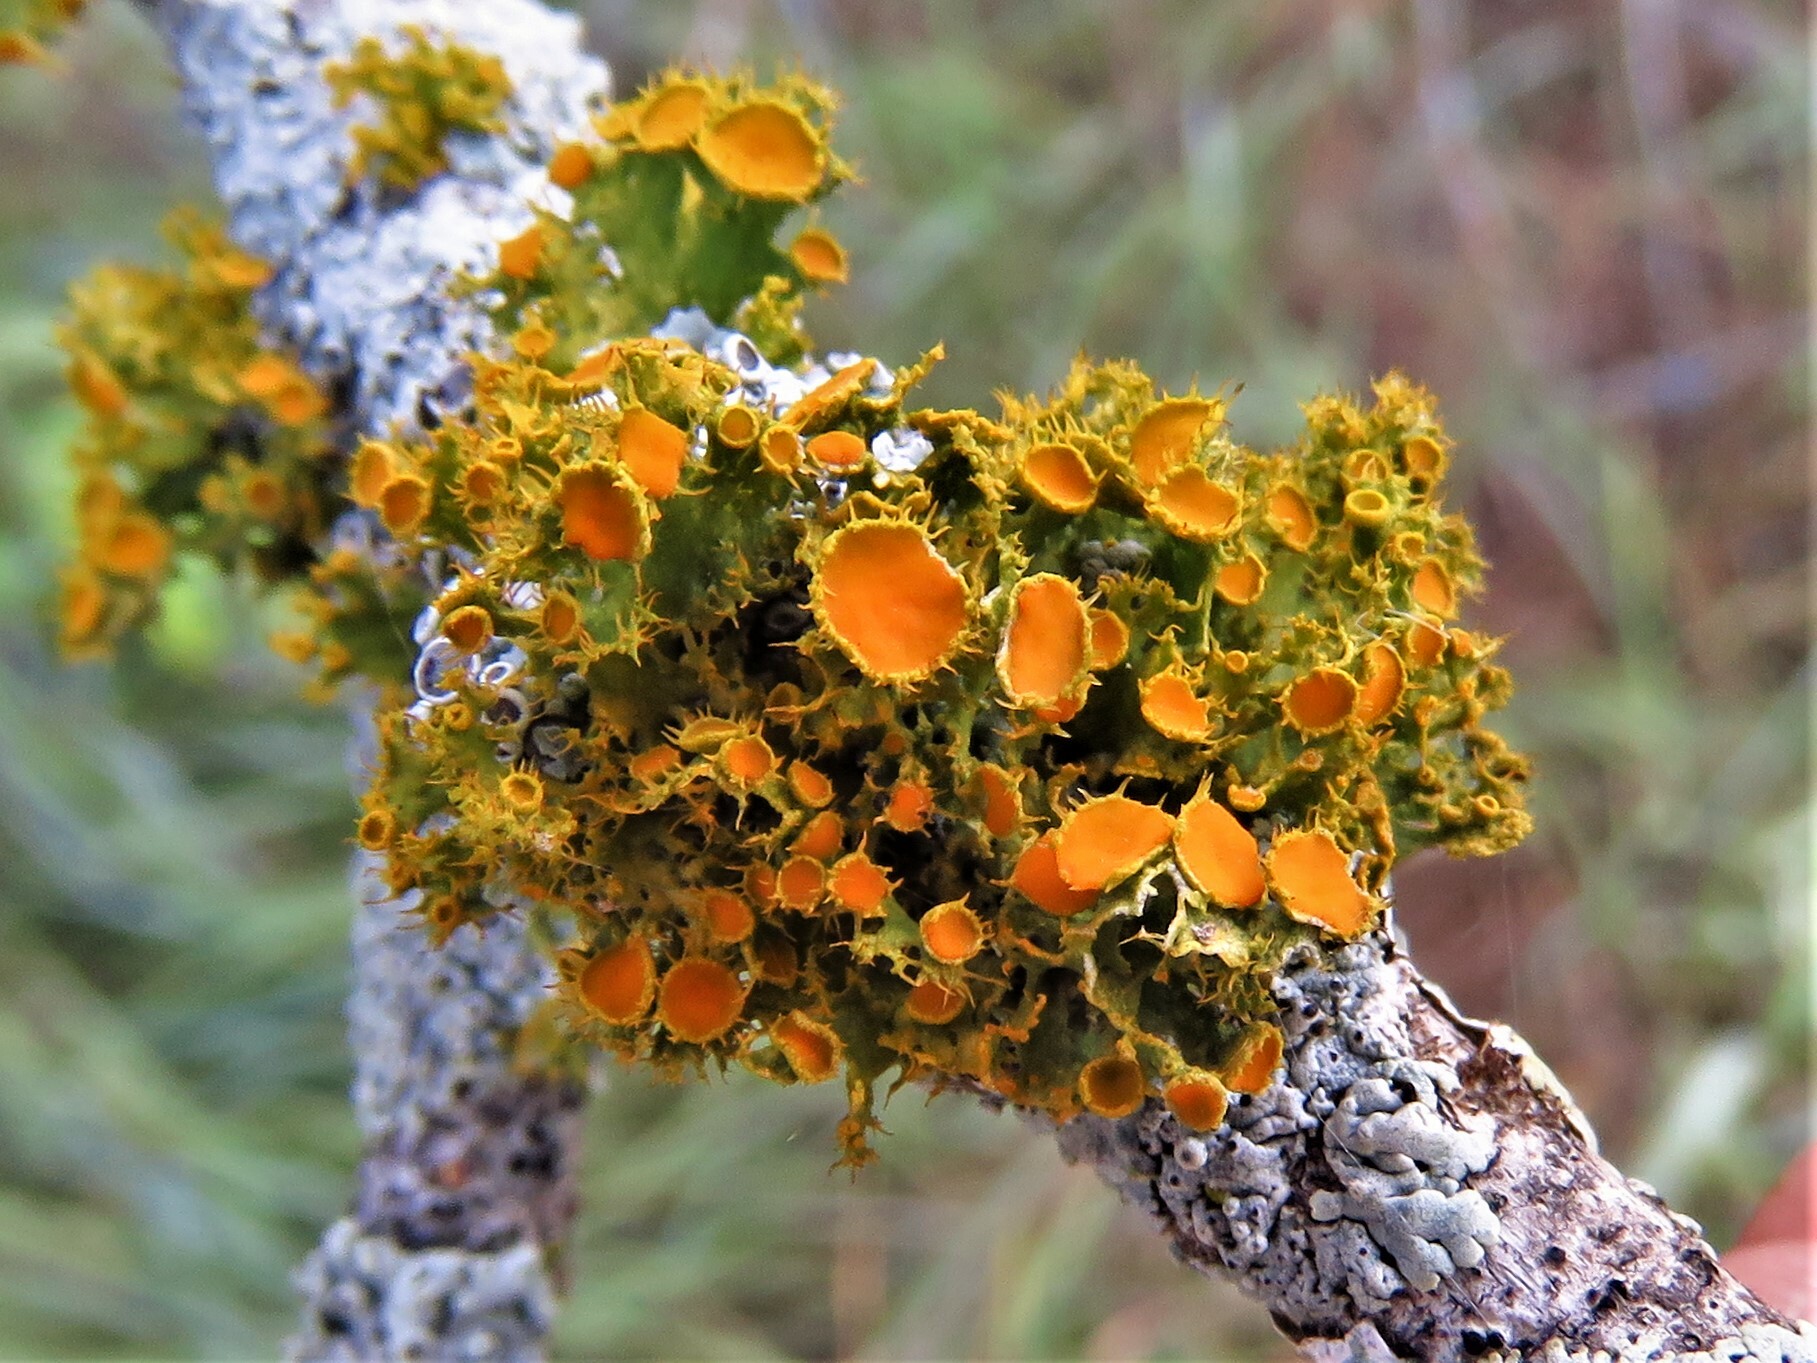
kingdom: Fungi
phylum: Ascomycota
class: Lecanoromycetes
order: Teloschistales
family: Teloschistaceae
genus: Niorma
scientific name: Niorma chrysophthalma
